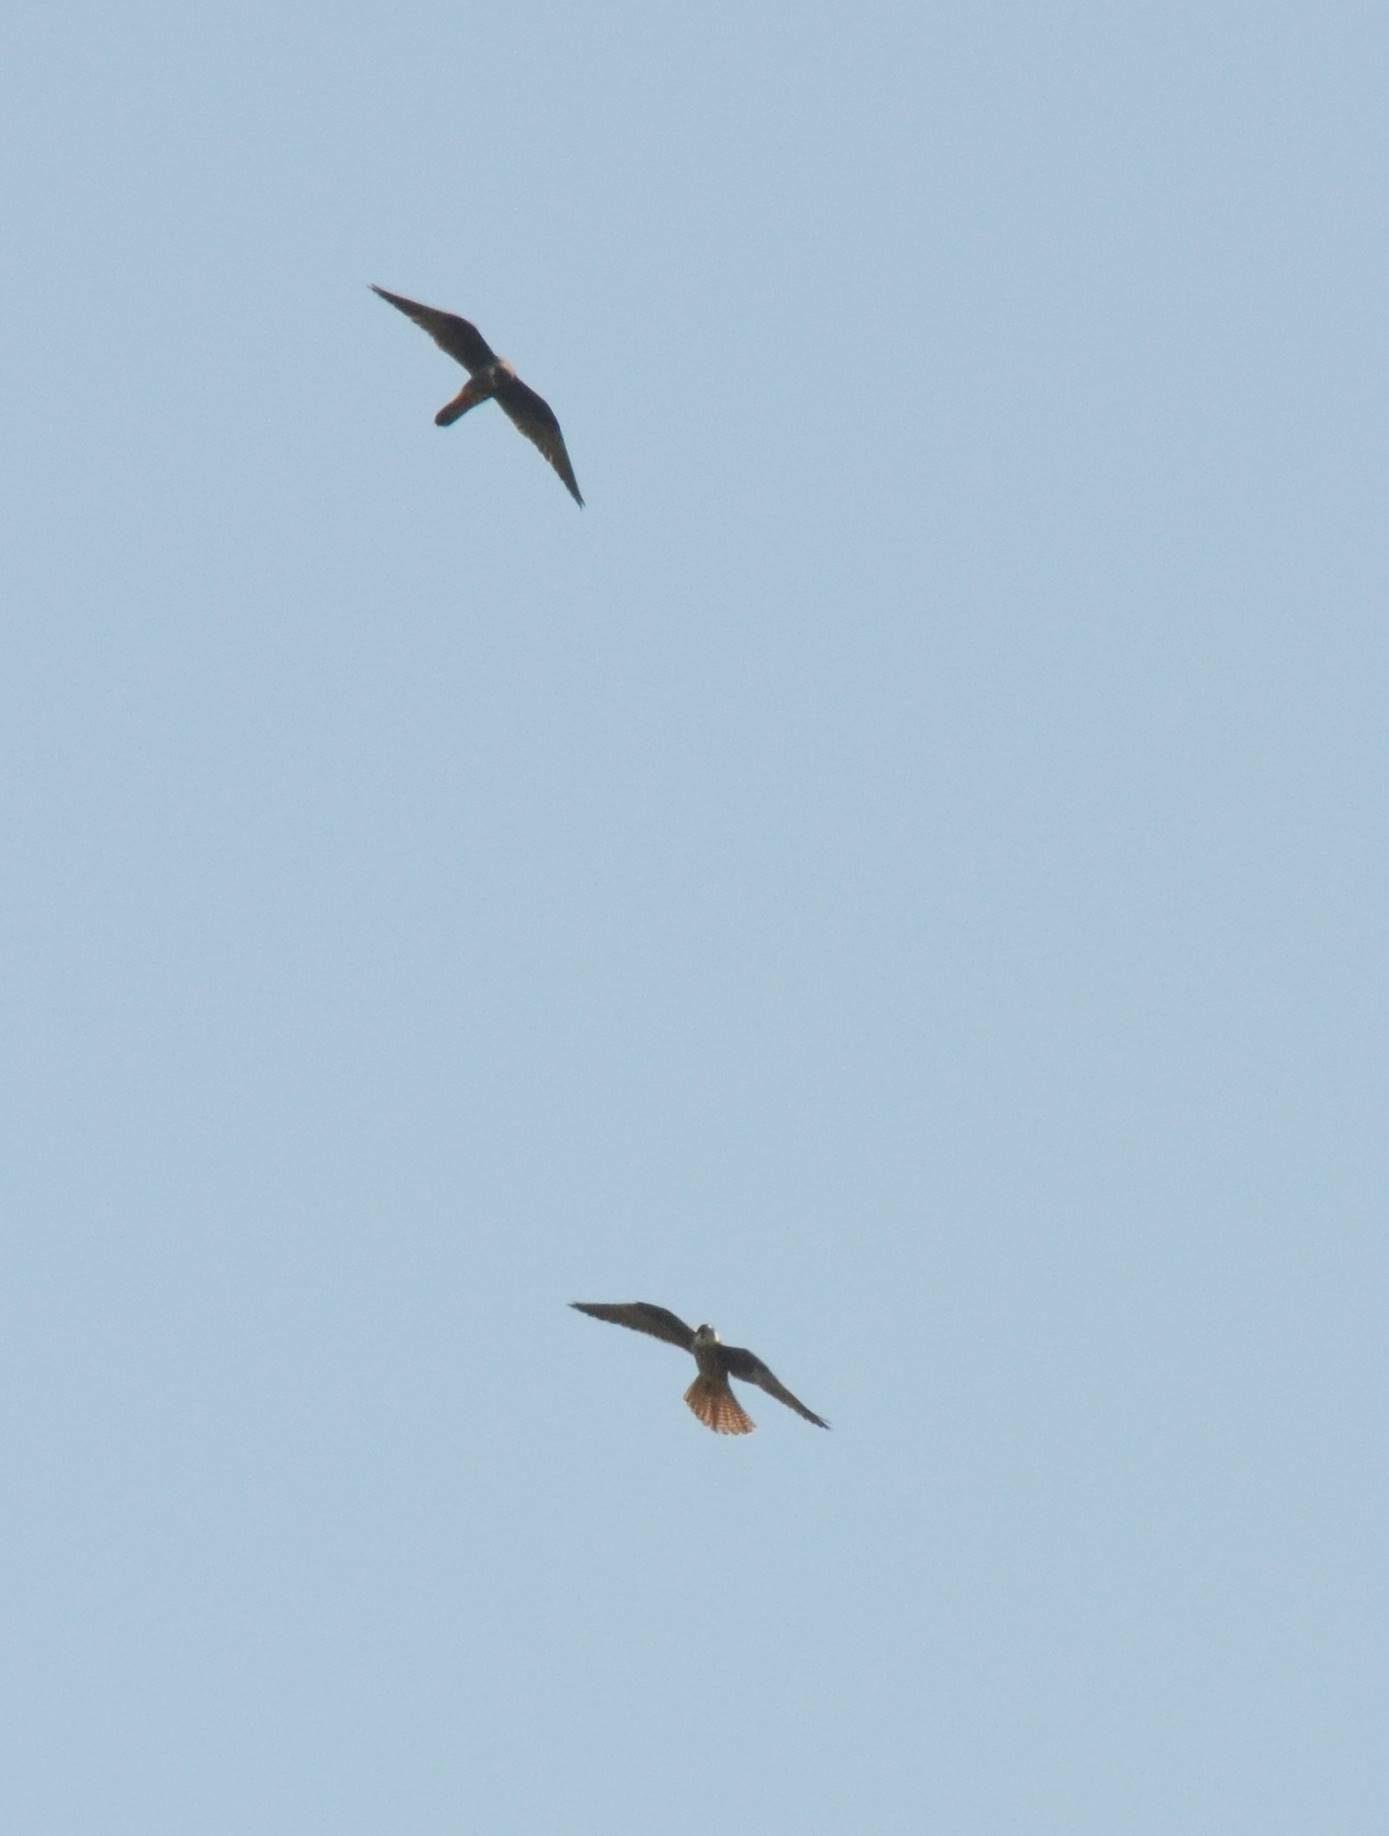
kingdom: Animalia
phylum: Chordata
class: Aves
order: Falconiformes
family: Falconidae
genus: Falco
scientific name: Falco subbuteo
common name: Eurasian hobby
